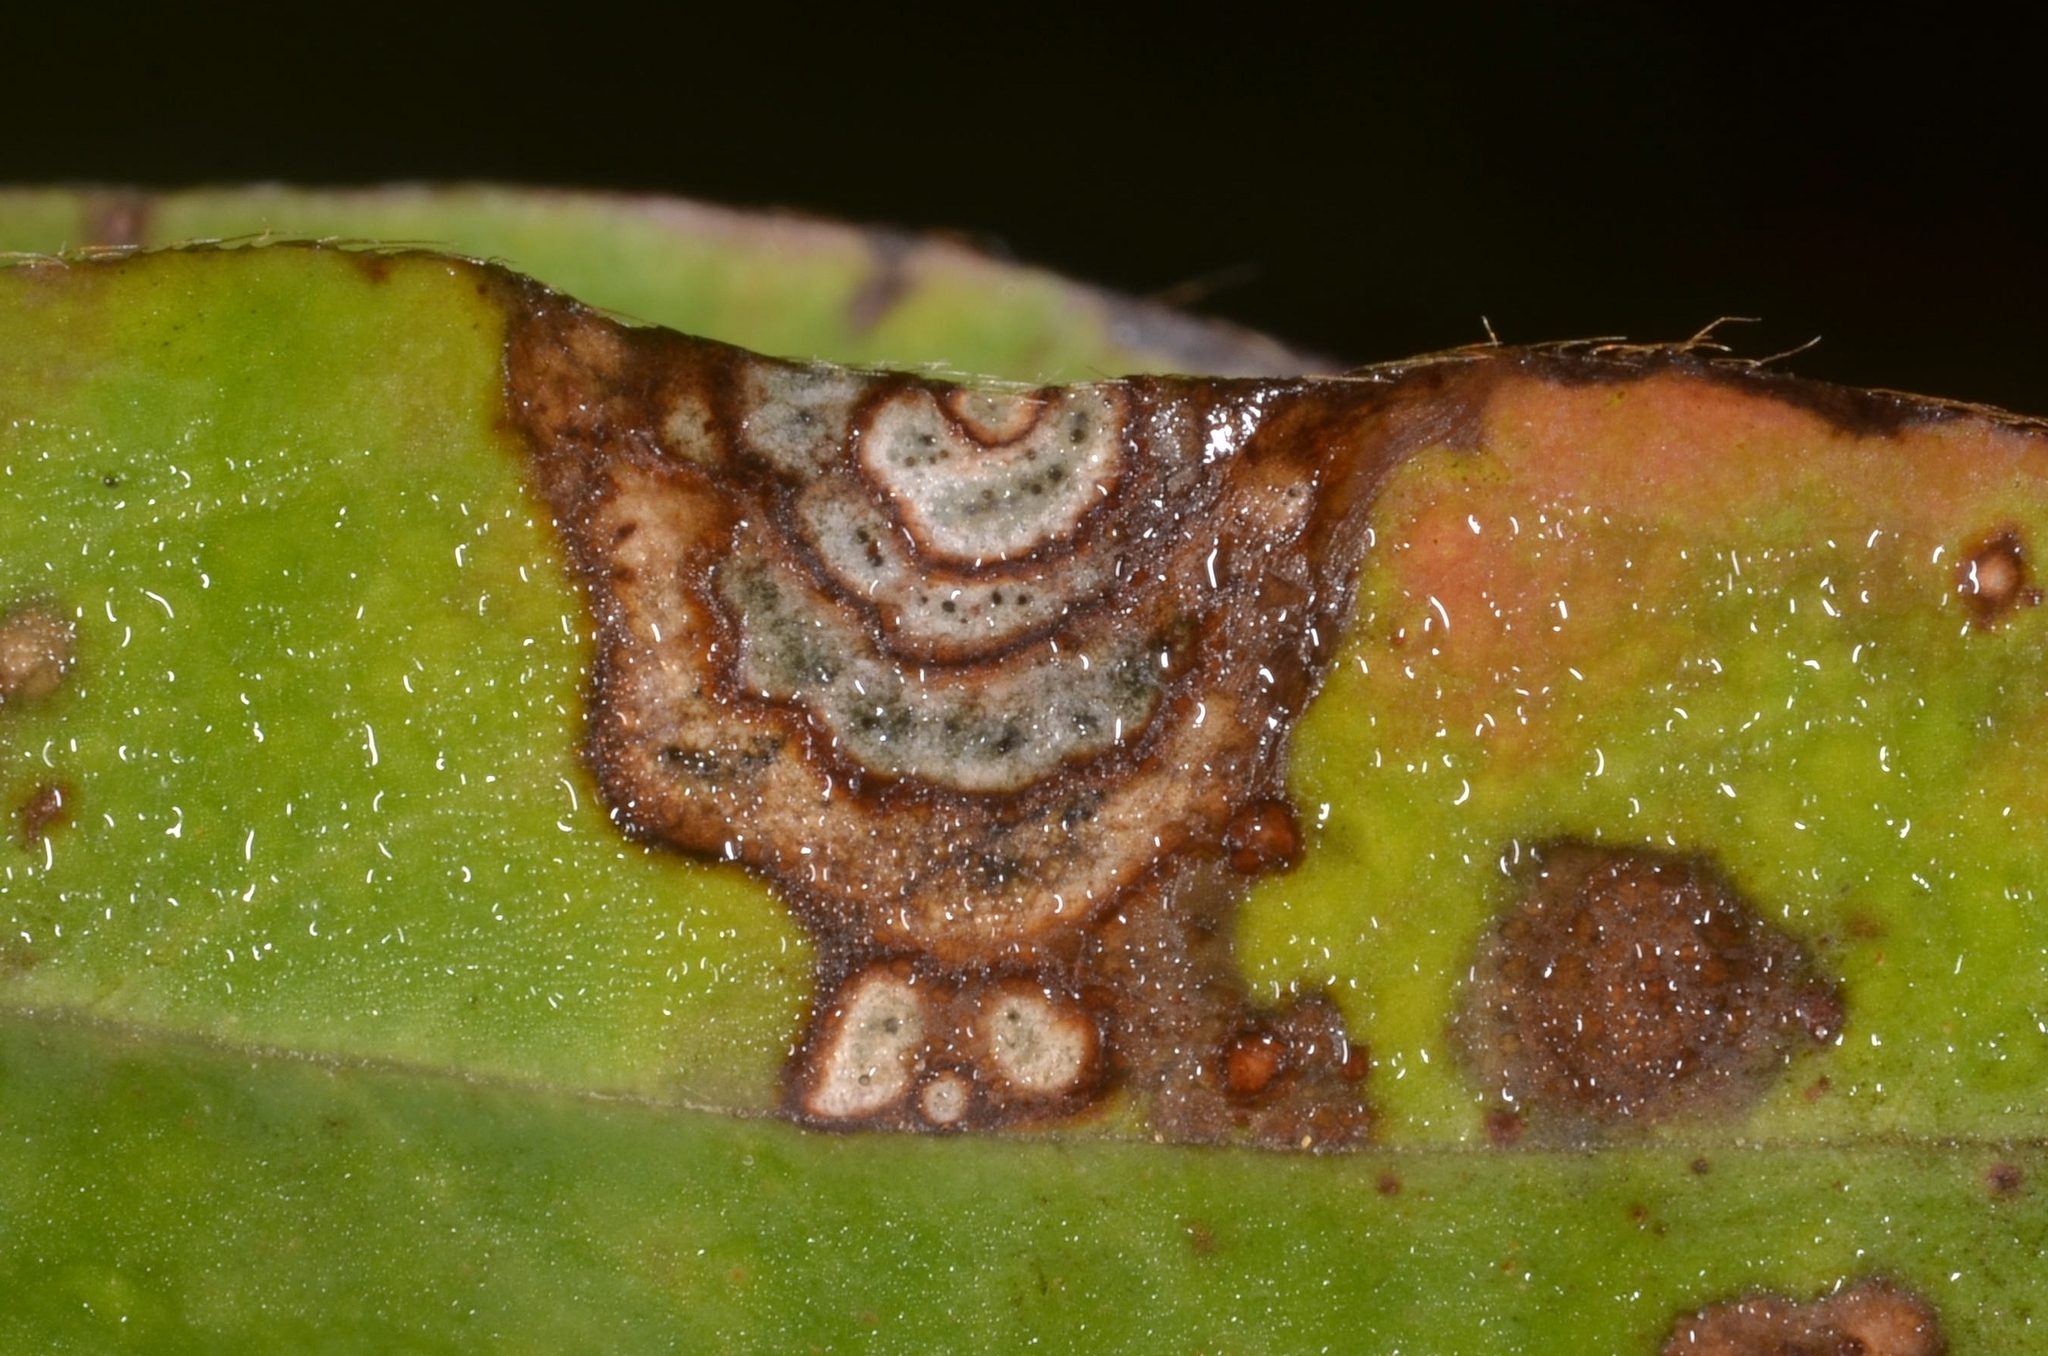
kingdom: Fungi
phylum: Ascomycota
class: Dothideomycetes
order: Mycosphaerellales
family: Mycosphaerellaceae
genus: Septoria
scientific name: Septoria kaznowskii
